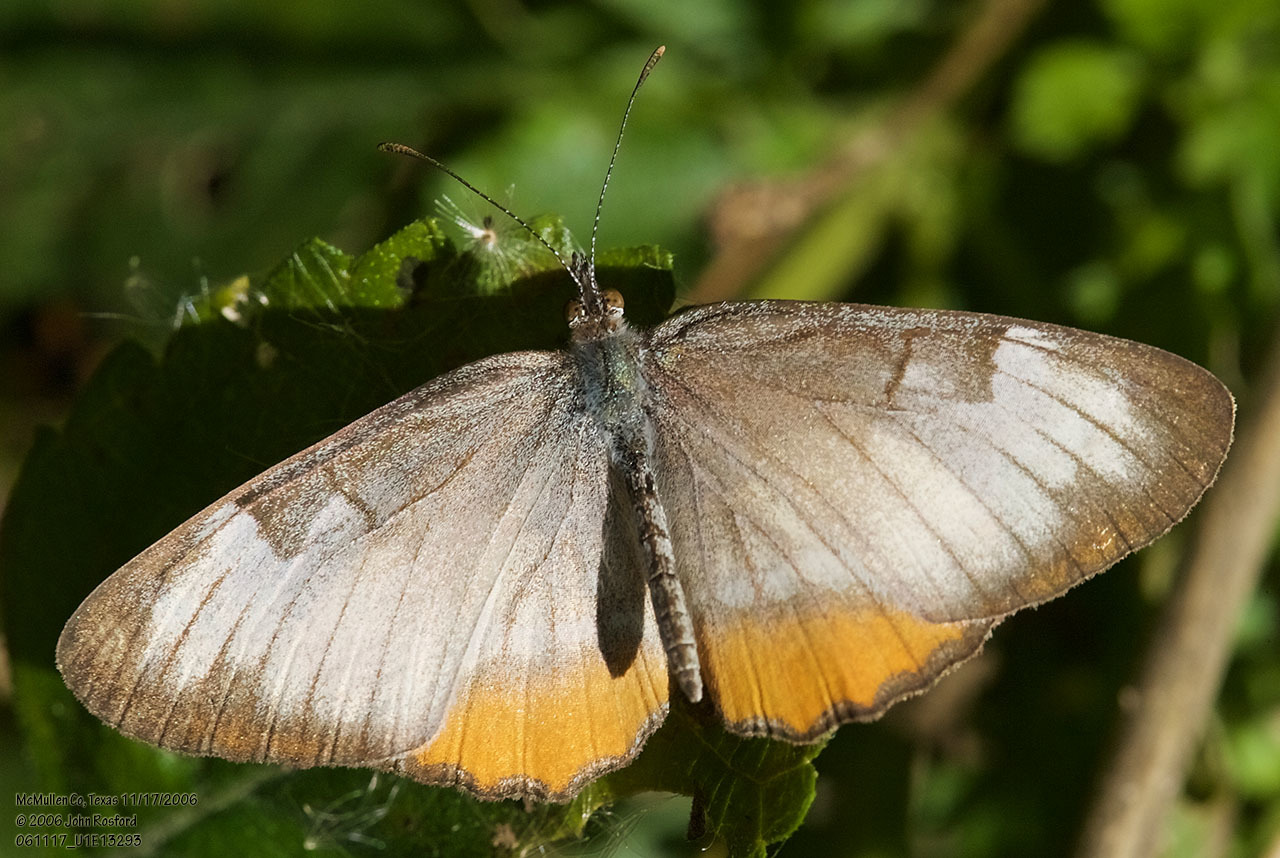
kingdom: Animalia
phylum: Arthropoda
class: Insecta
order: Lepidoptera
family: Nymphalidae
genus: Mestra
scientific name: Mestra amymone
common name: Common mestra
